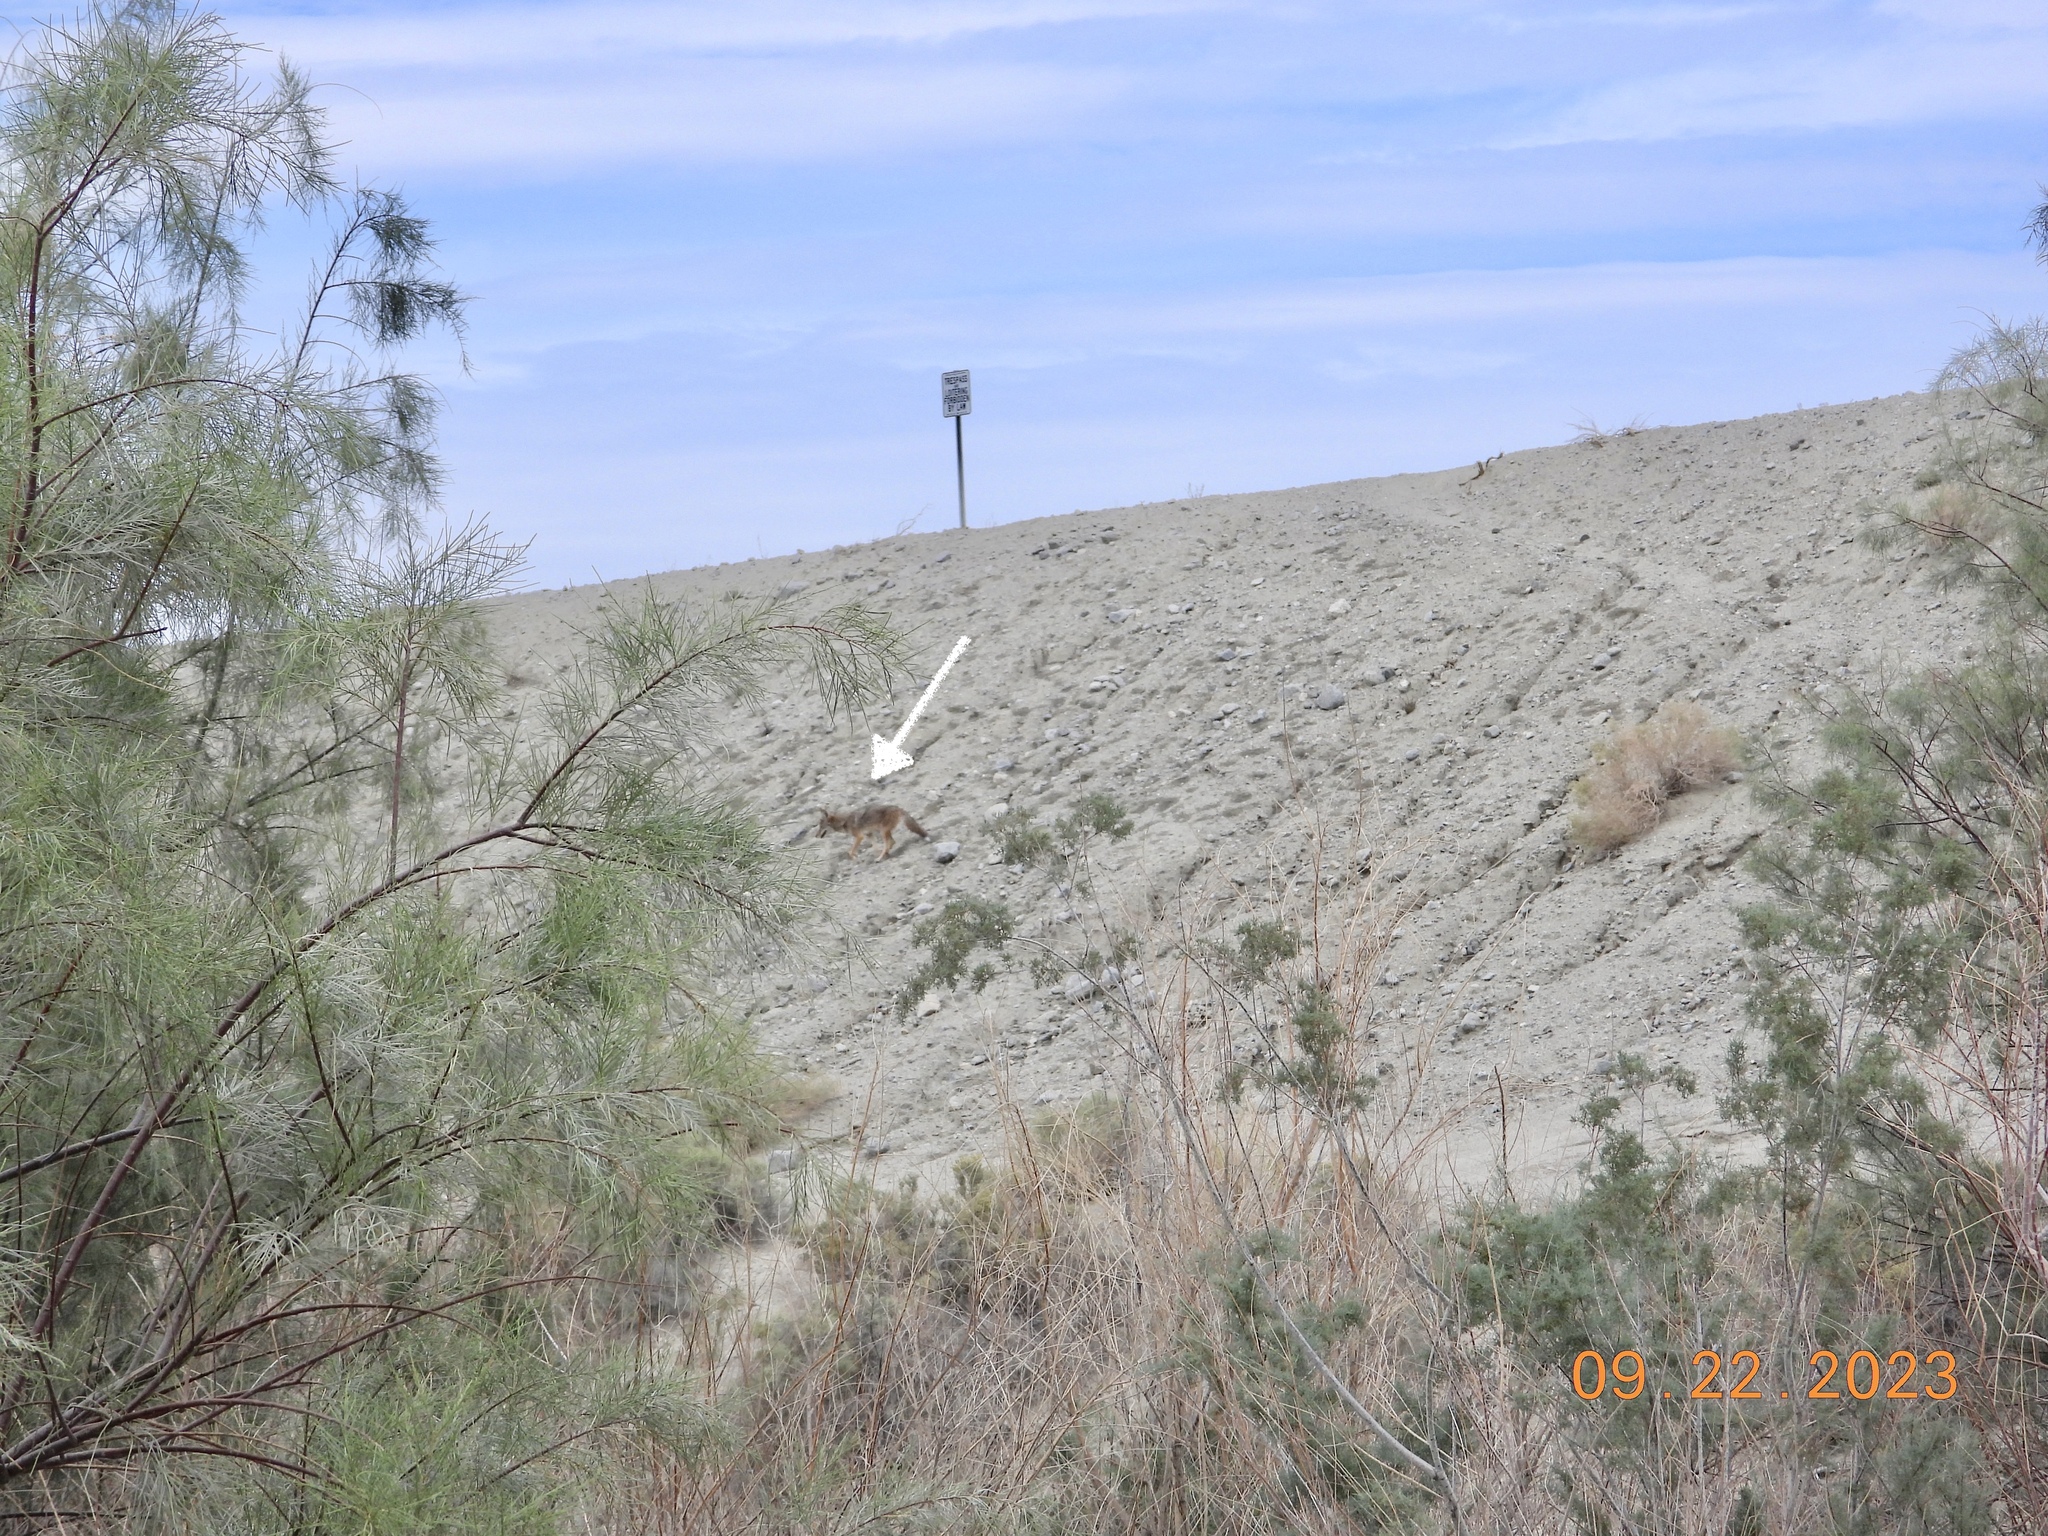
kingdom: Animalia
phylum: Chordata
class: Mammalia
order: Carnivora
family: Canidae
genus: Canis
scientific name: Canis latrans
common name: Coyote
